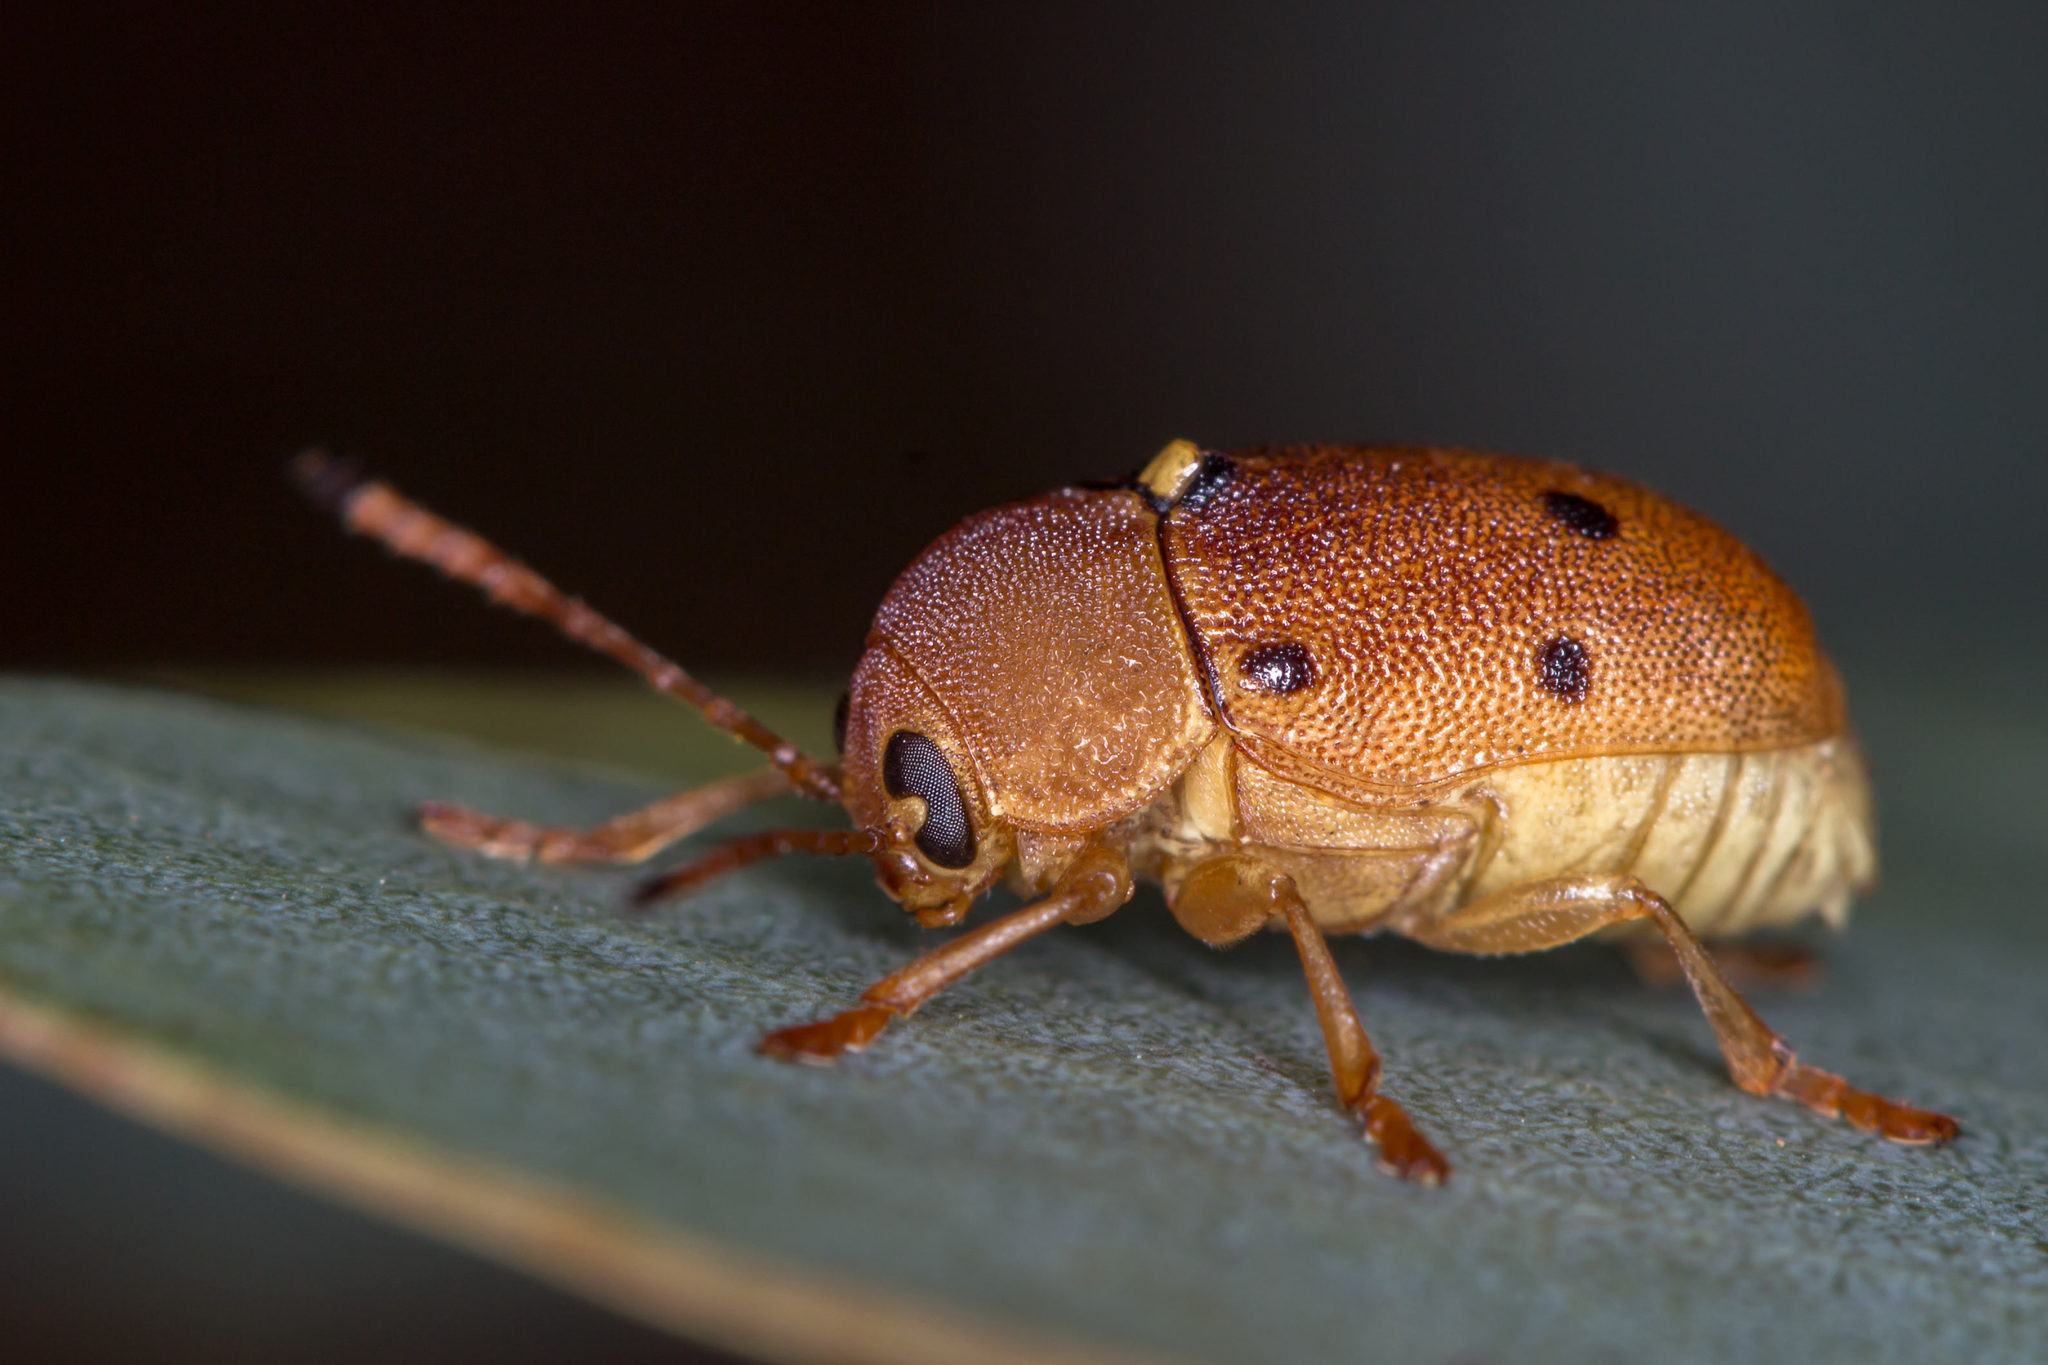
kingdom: Animalia
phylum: Arthropoda
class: Insecta
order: Coleoptera
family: Chrysomelidae
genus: Cadmus
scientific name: Cadmus
